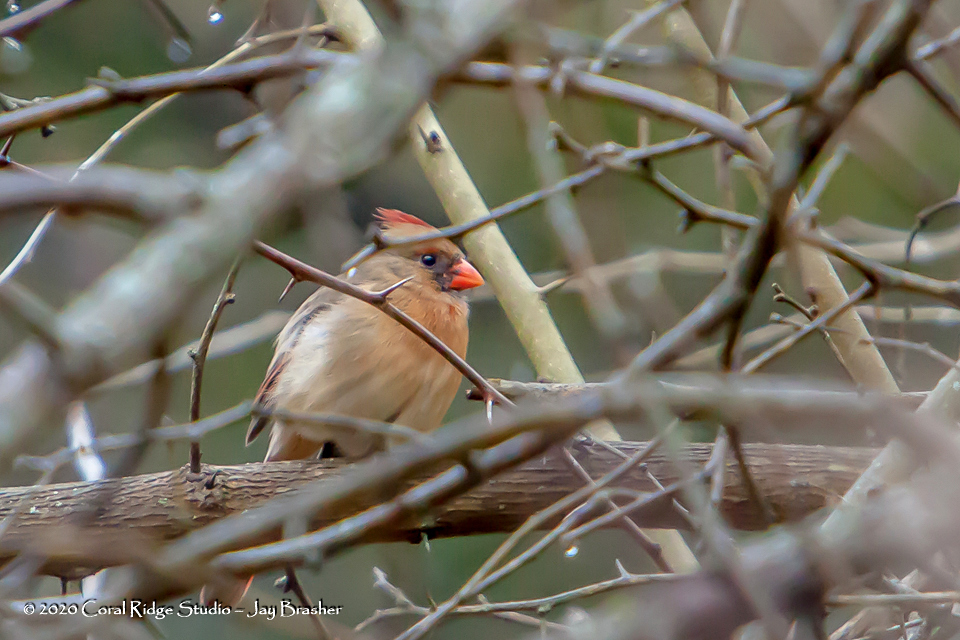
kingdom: Animalia
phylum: Chordata
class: Aves
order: Passeriformes
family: Cardinalidae
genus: Cardinalis
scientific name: Cardinalis cardinalis
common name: Northern cardinal
